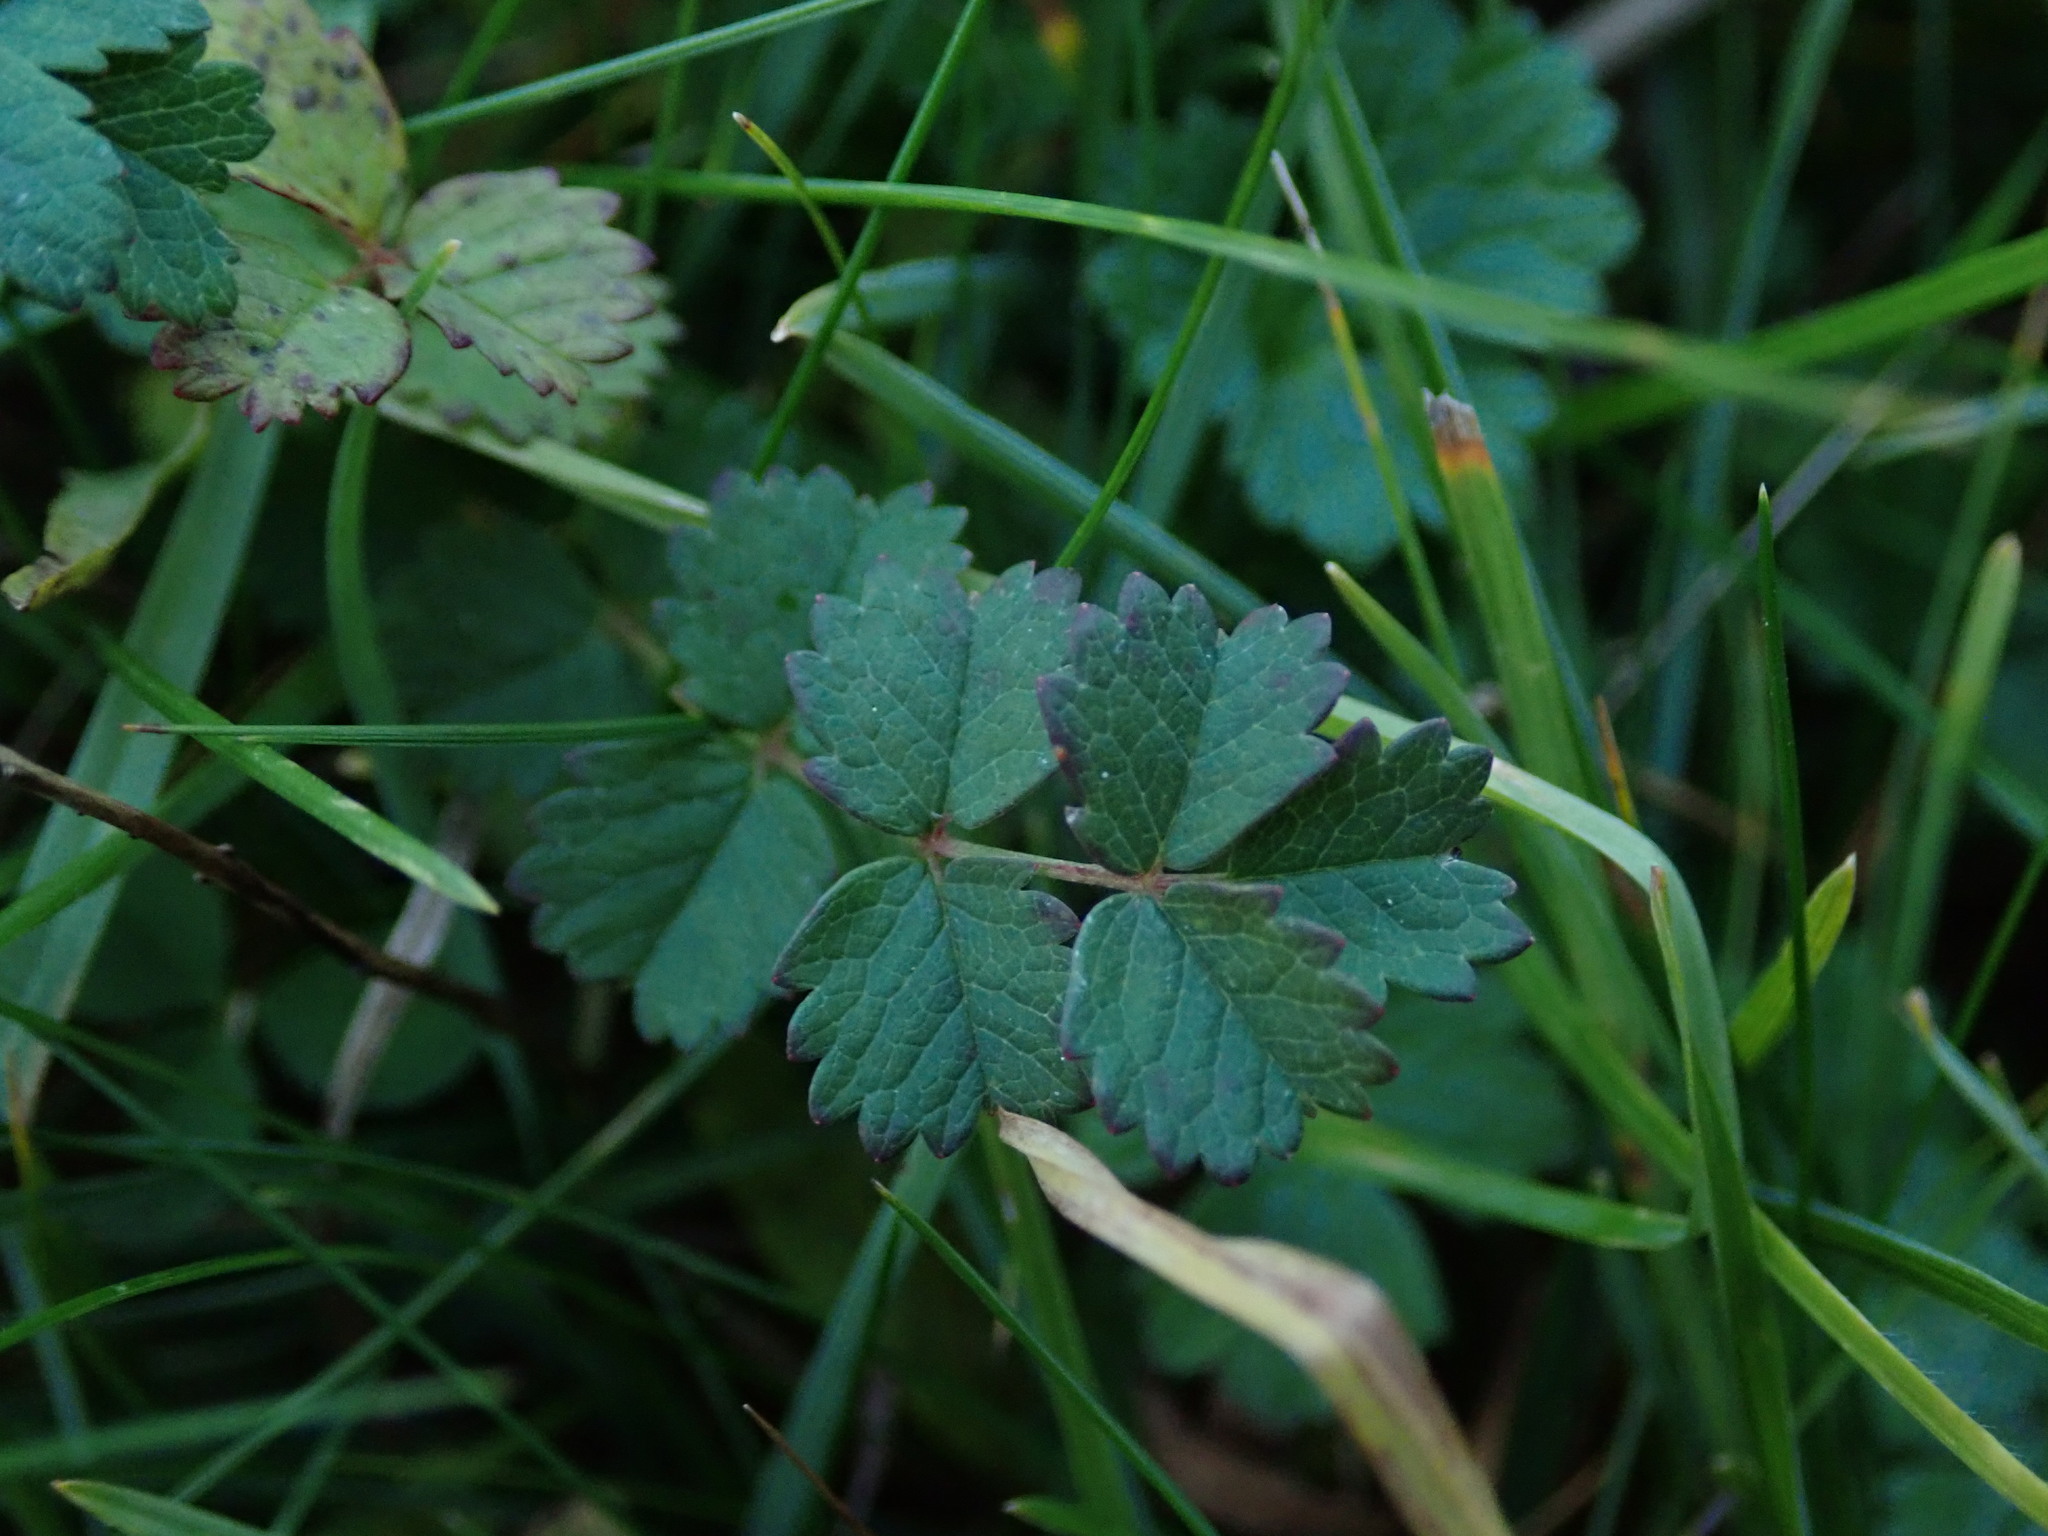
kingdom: Plantae
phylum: Tracheophyta
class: Magnoliopsida
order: Rosales
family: Rosaceae
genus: Poterium
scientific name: Poterium sanguisorba
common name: Salad burnet
